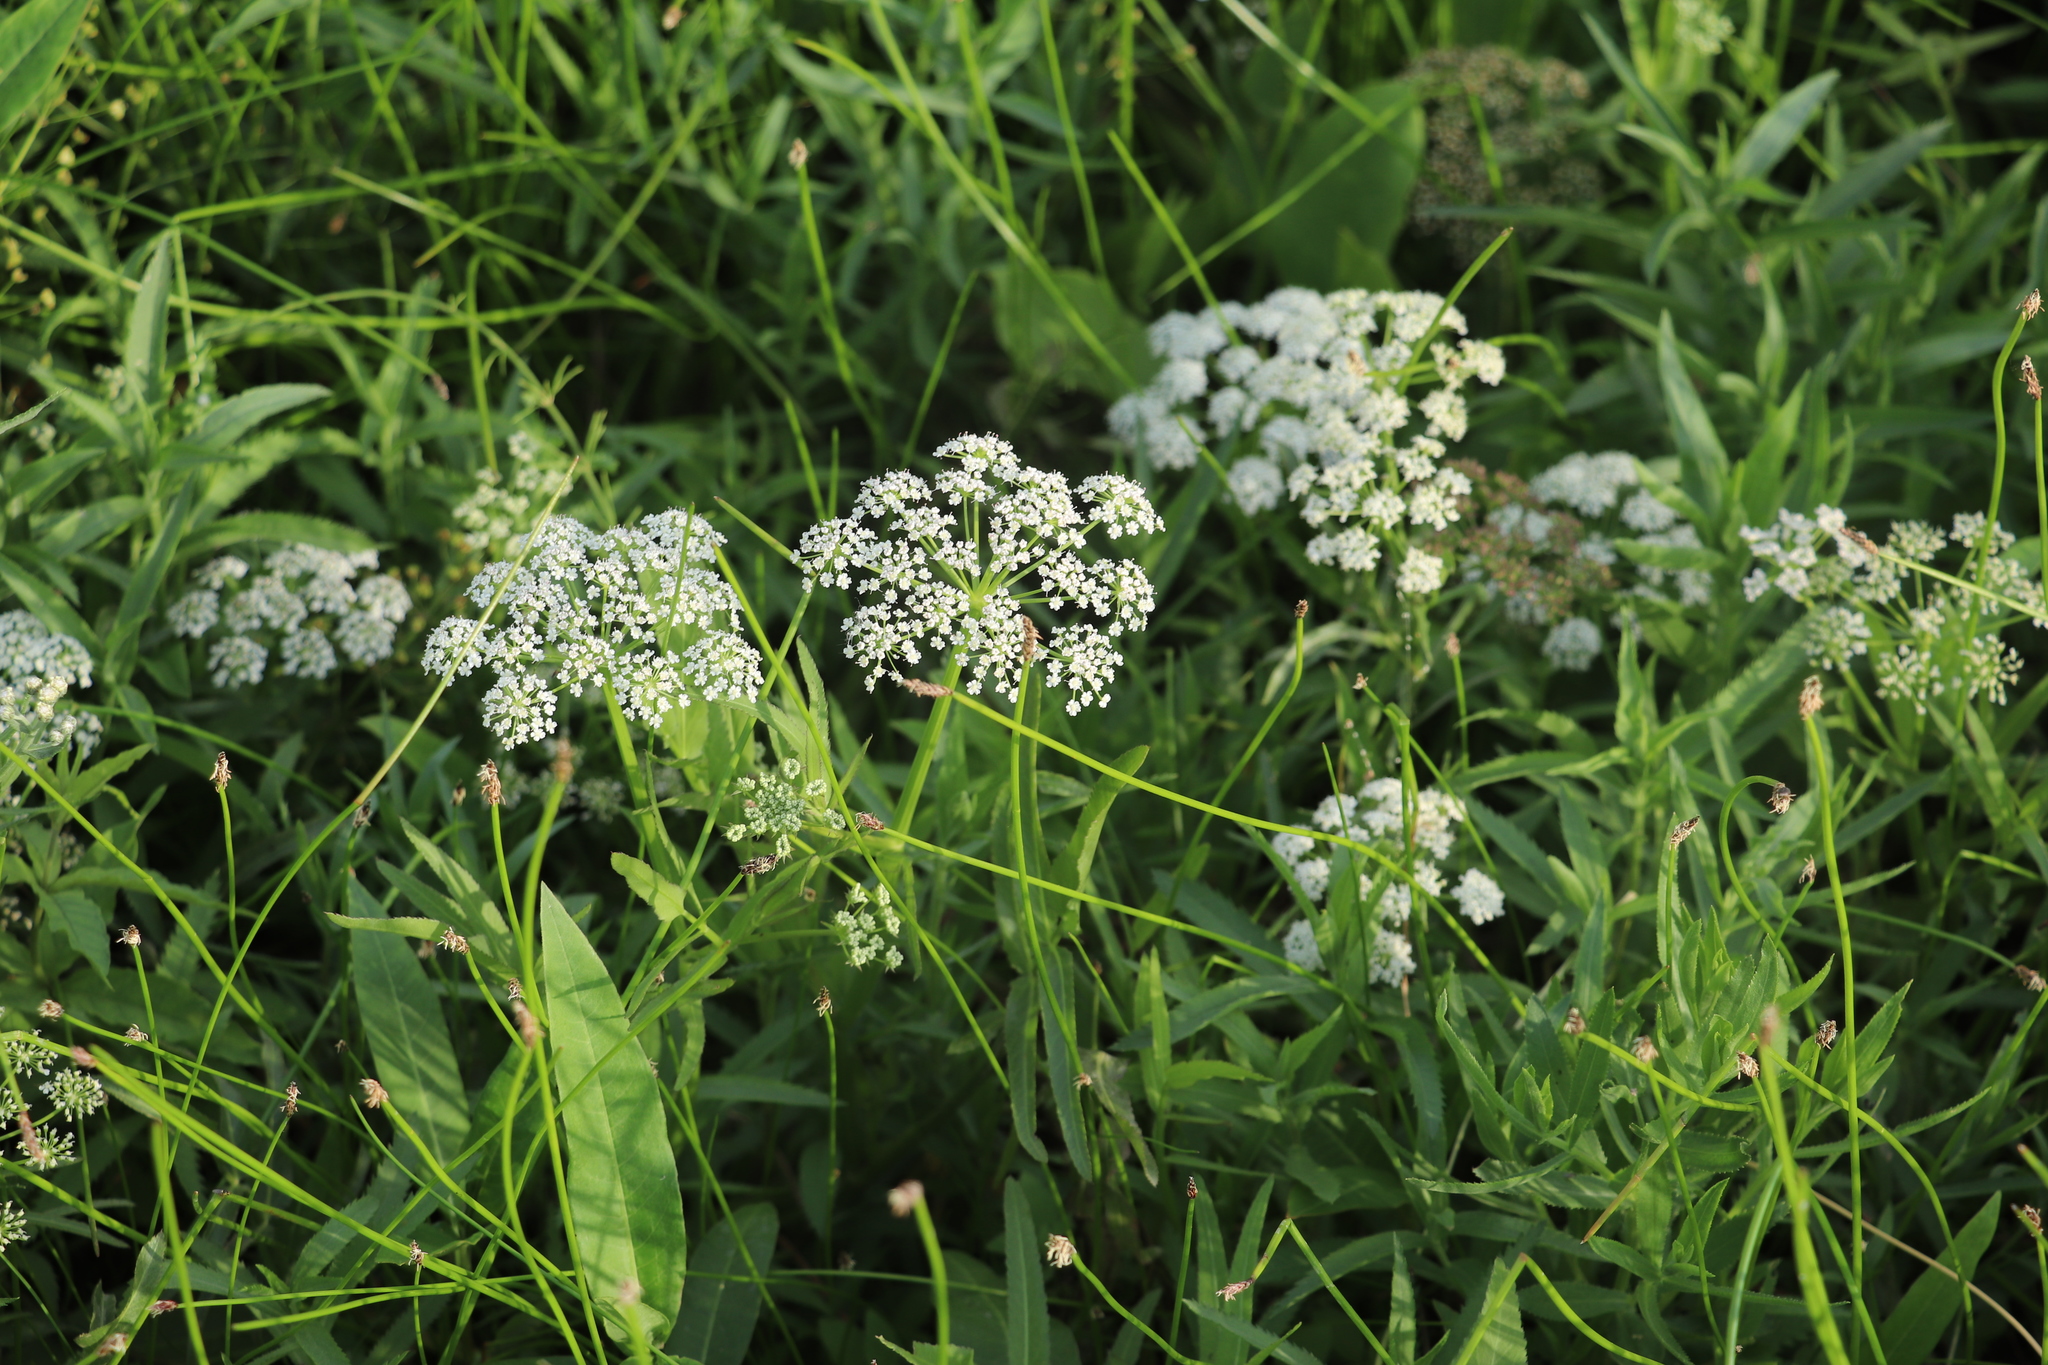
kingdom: Plantae
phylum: Tracheophyta
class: Magnoliopsida
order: Apiales
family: Apiaceae
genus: Cicuta
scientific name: Cicuta virosa
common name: Cowbane
